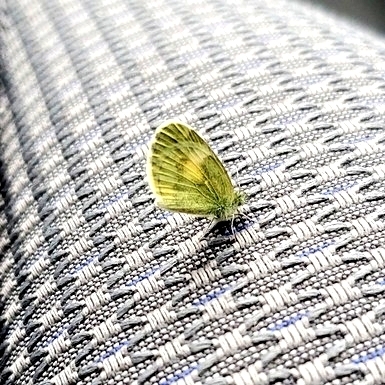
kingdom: Animalia
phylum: Arthropoda
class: Insecta
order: Lepidoptera
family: Pieridae
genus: Nathalis
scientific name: Nathalis iole
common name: Dainty sulphur
